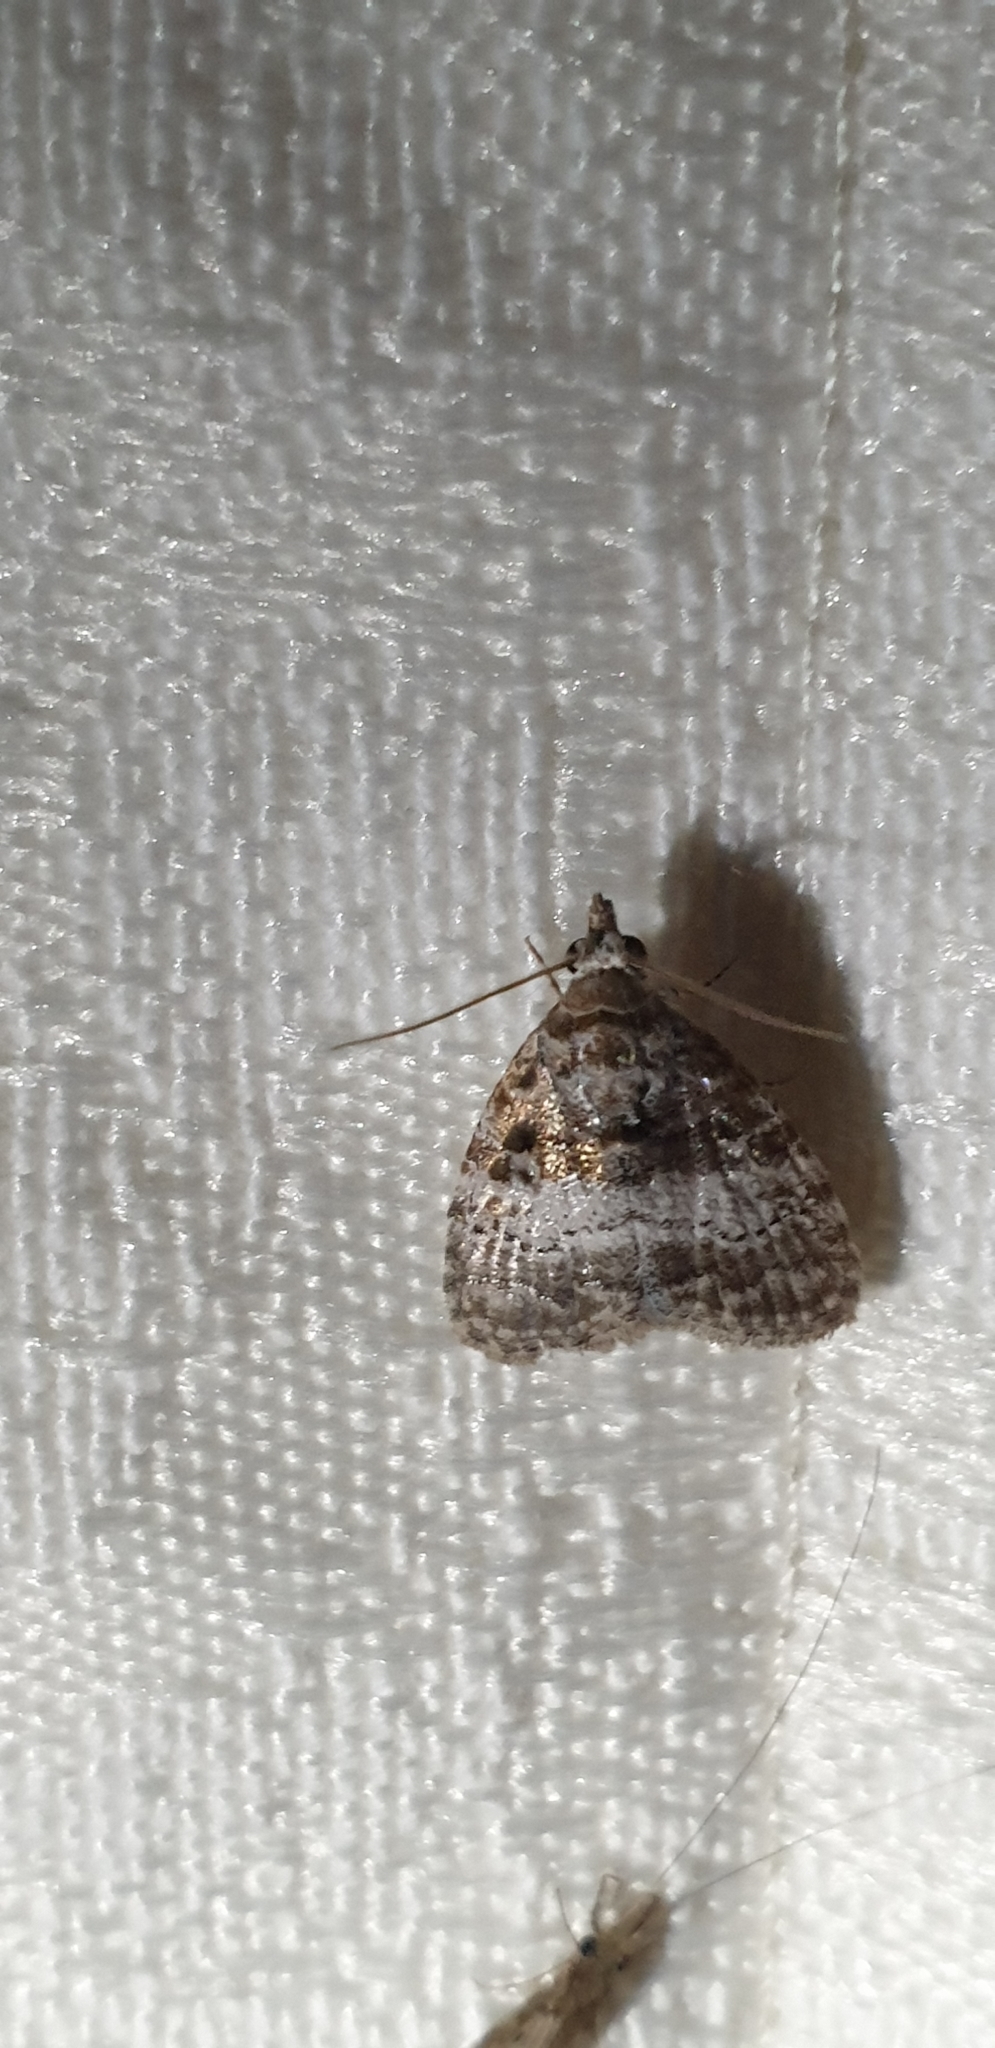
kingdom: Animalia
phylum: Arthropoda
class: Insecta
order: Lepidoptera
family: Nolidae
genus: Nola
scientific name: Nola Pisara hyalospila
